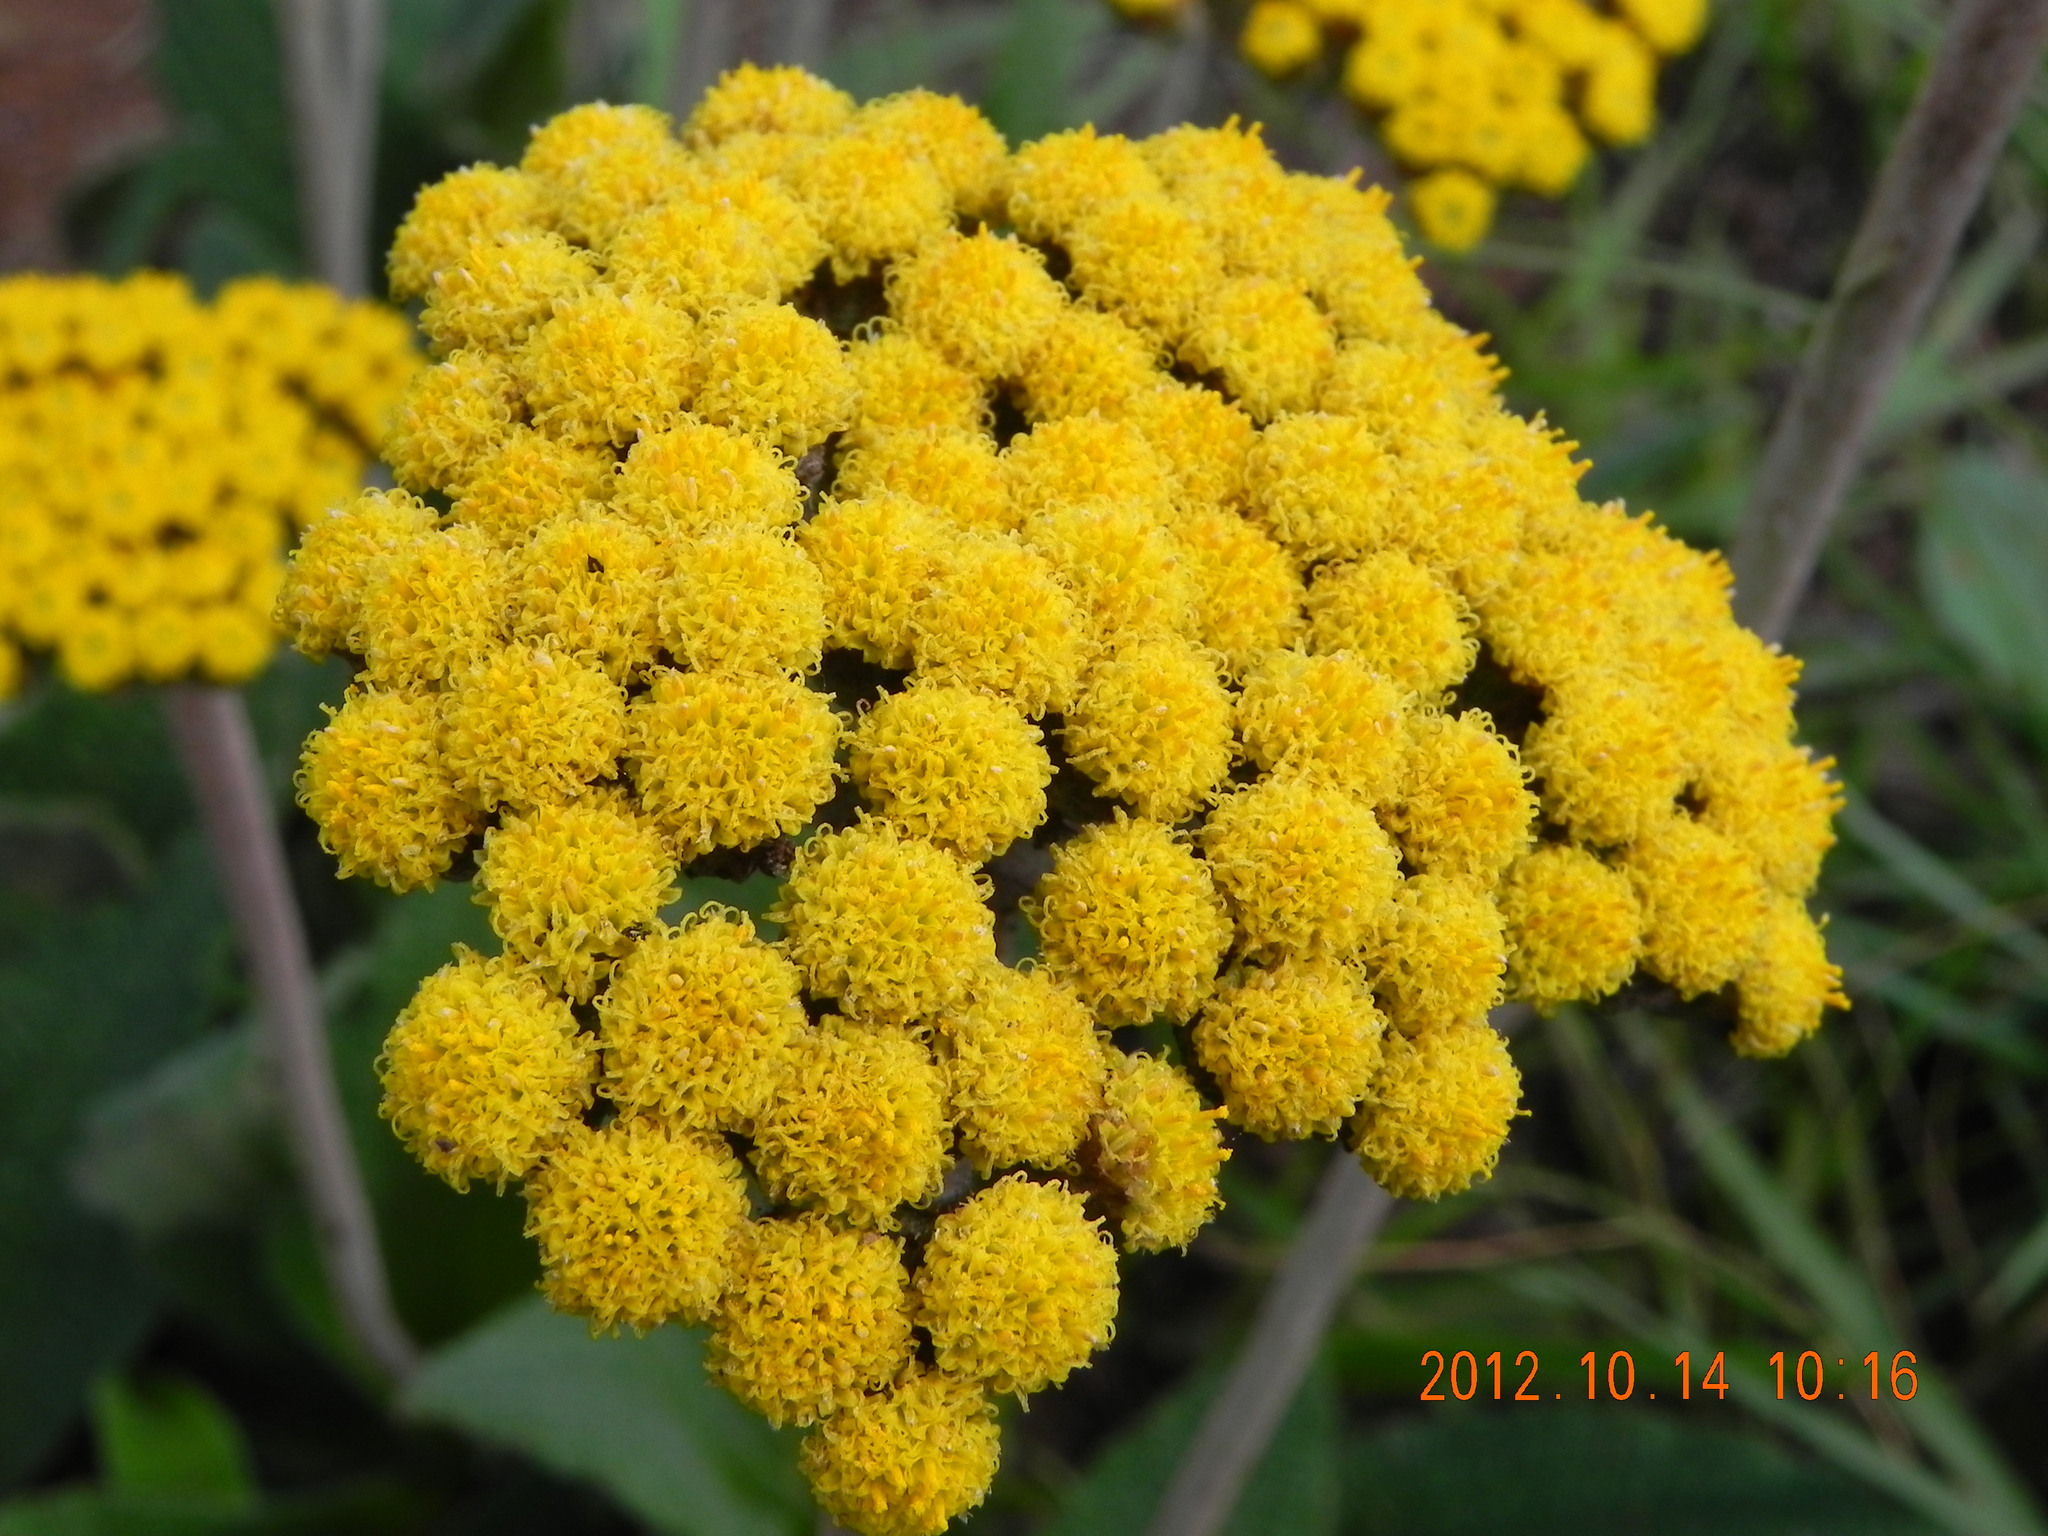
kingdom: Plantae
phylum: Tracheophyta
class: Magnoliopsida
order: Asterales
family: Asteraceae
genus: Helichrysum
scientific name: Helichrysum nudifolium
